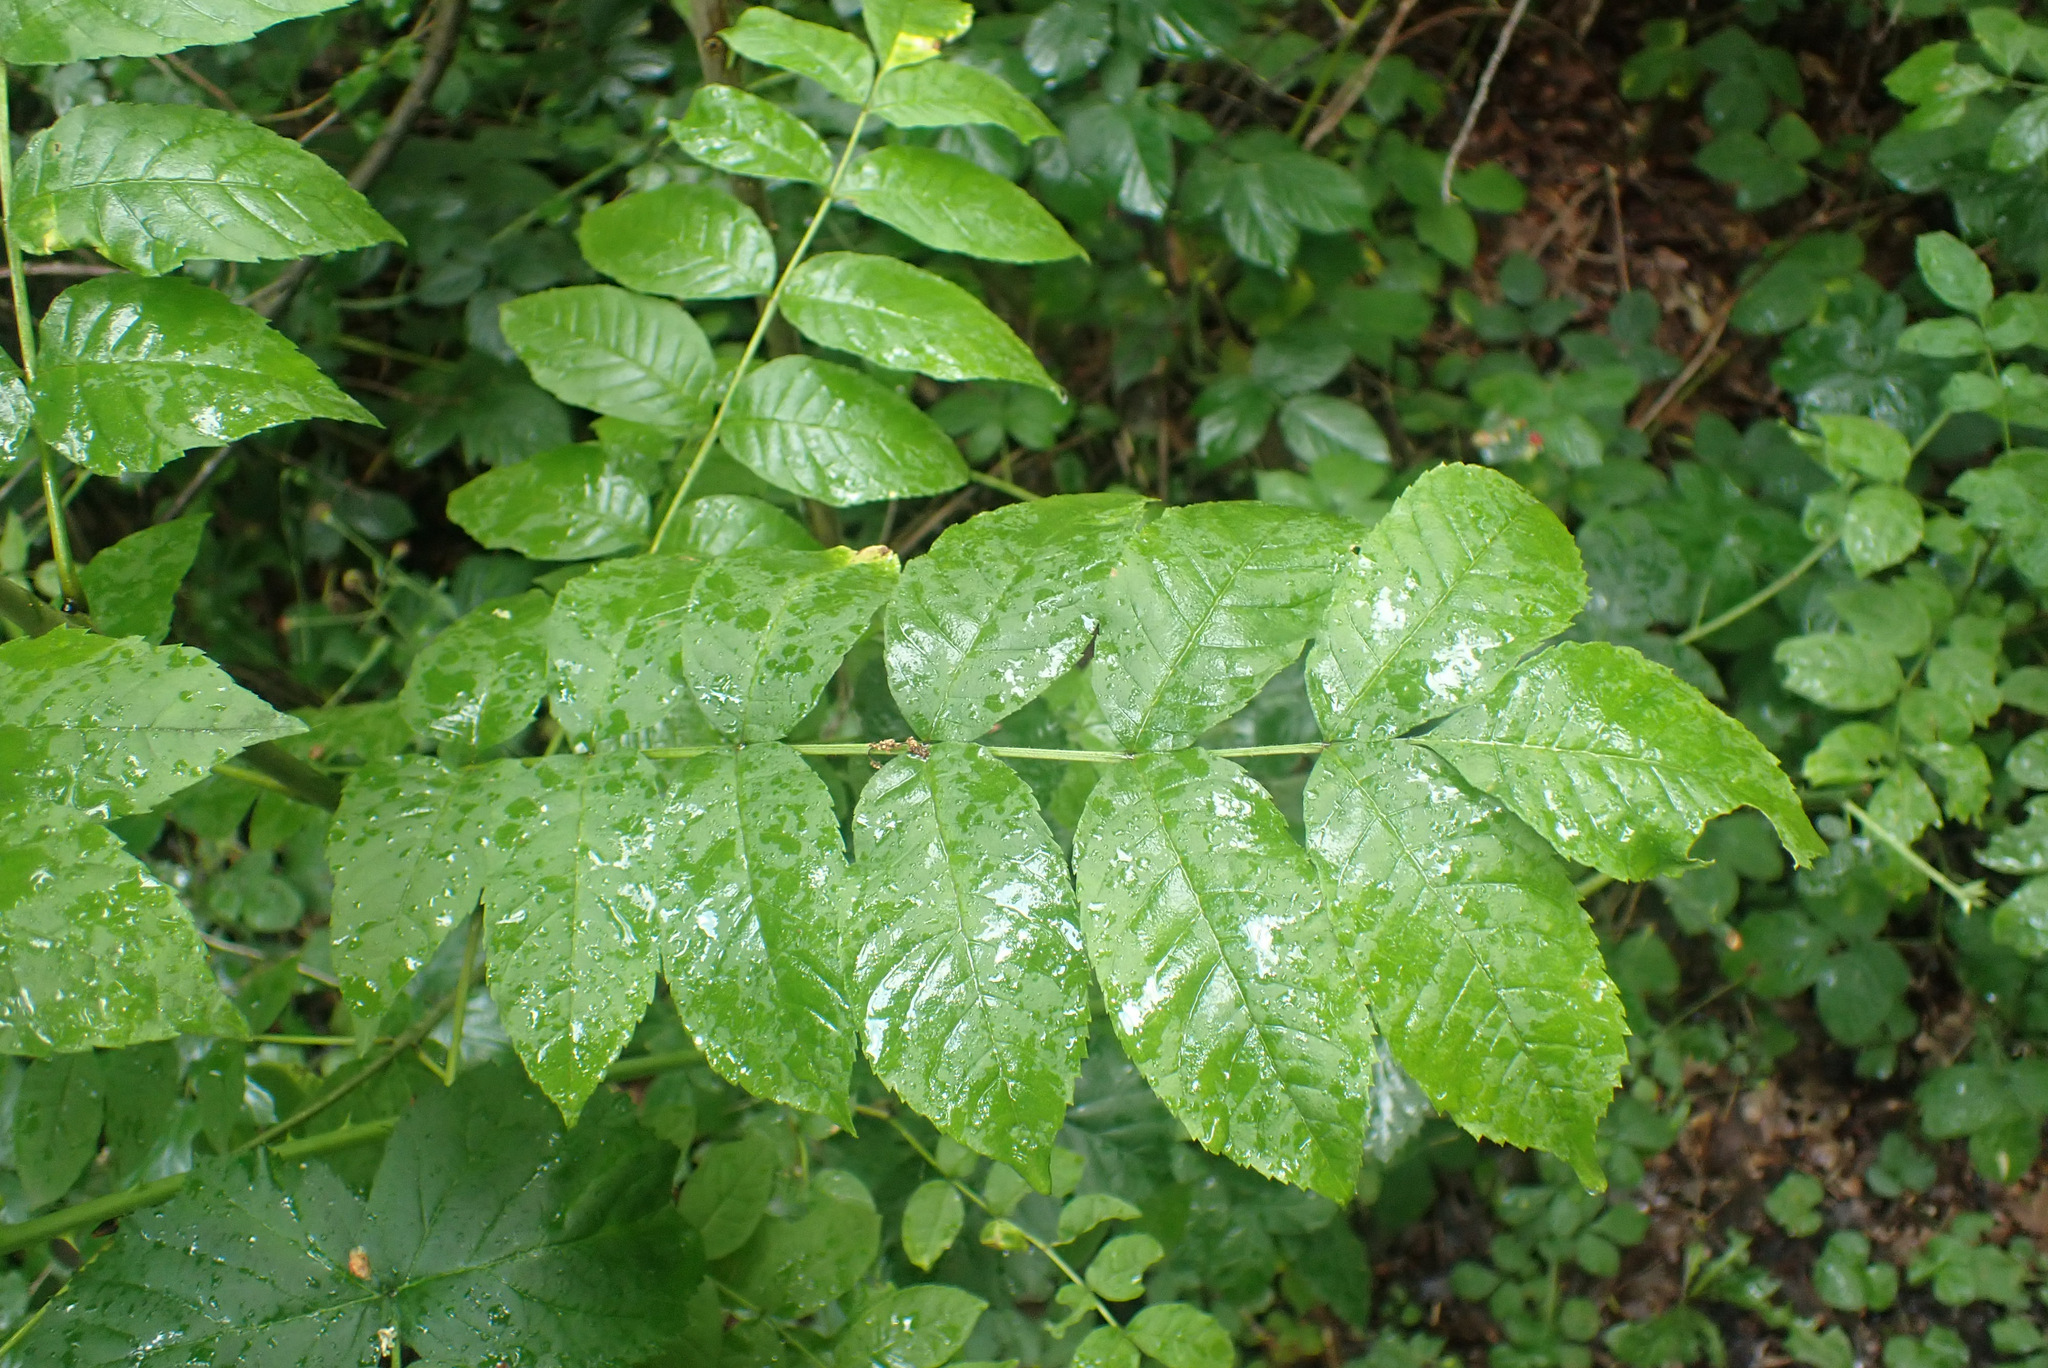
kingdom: Plantae
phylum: Tracheophyta
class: Magnoliopsida
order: Lamiales
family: Oleaceae
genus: Fraxinus
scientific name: Fraxinus excelsior
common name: European ash
